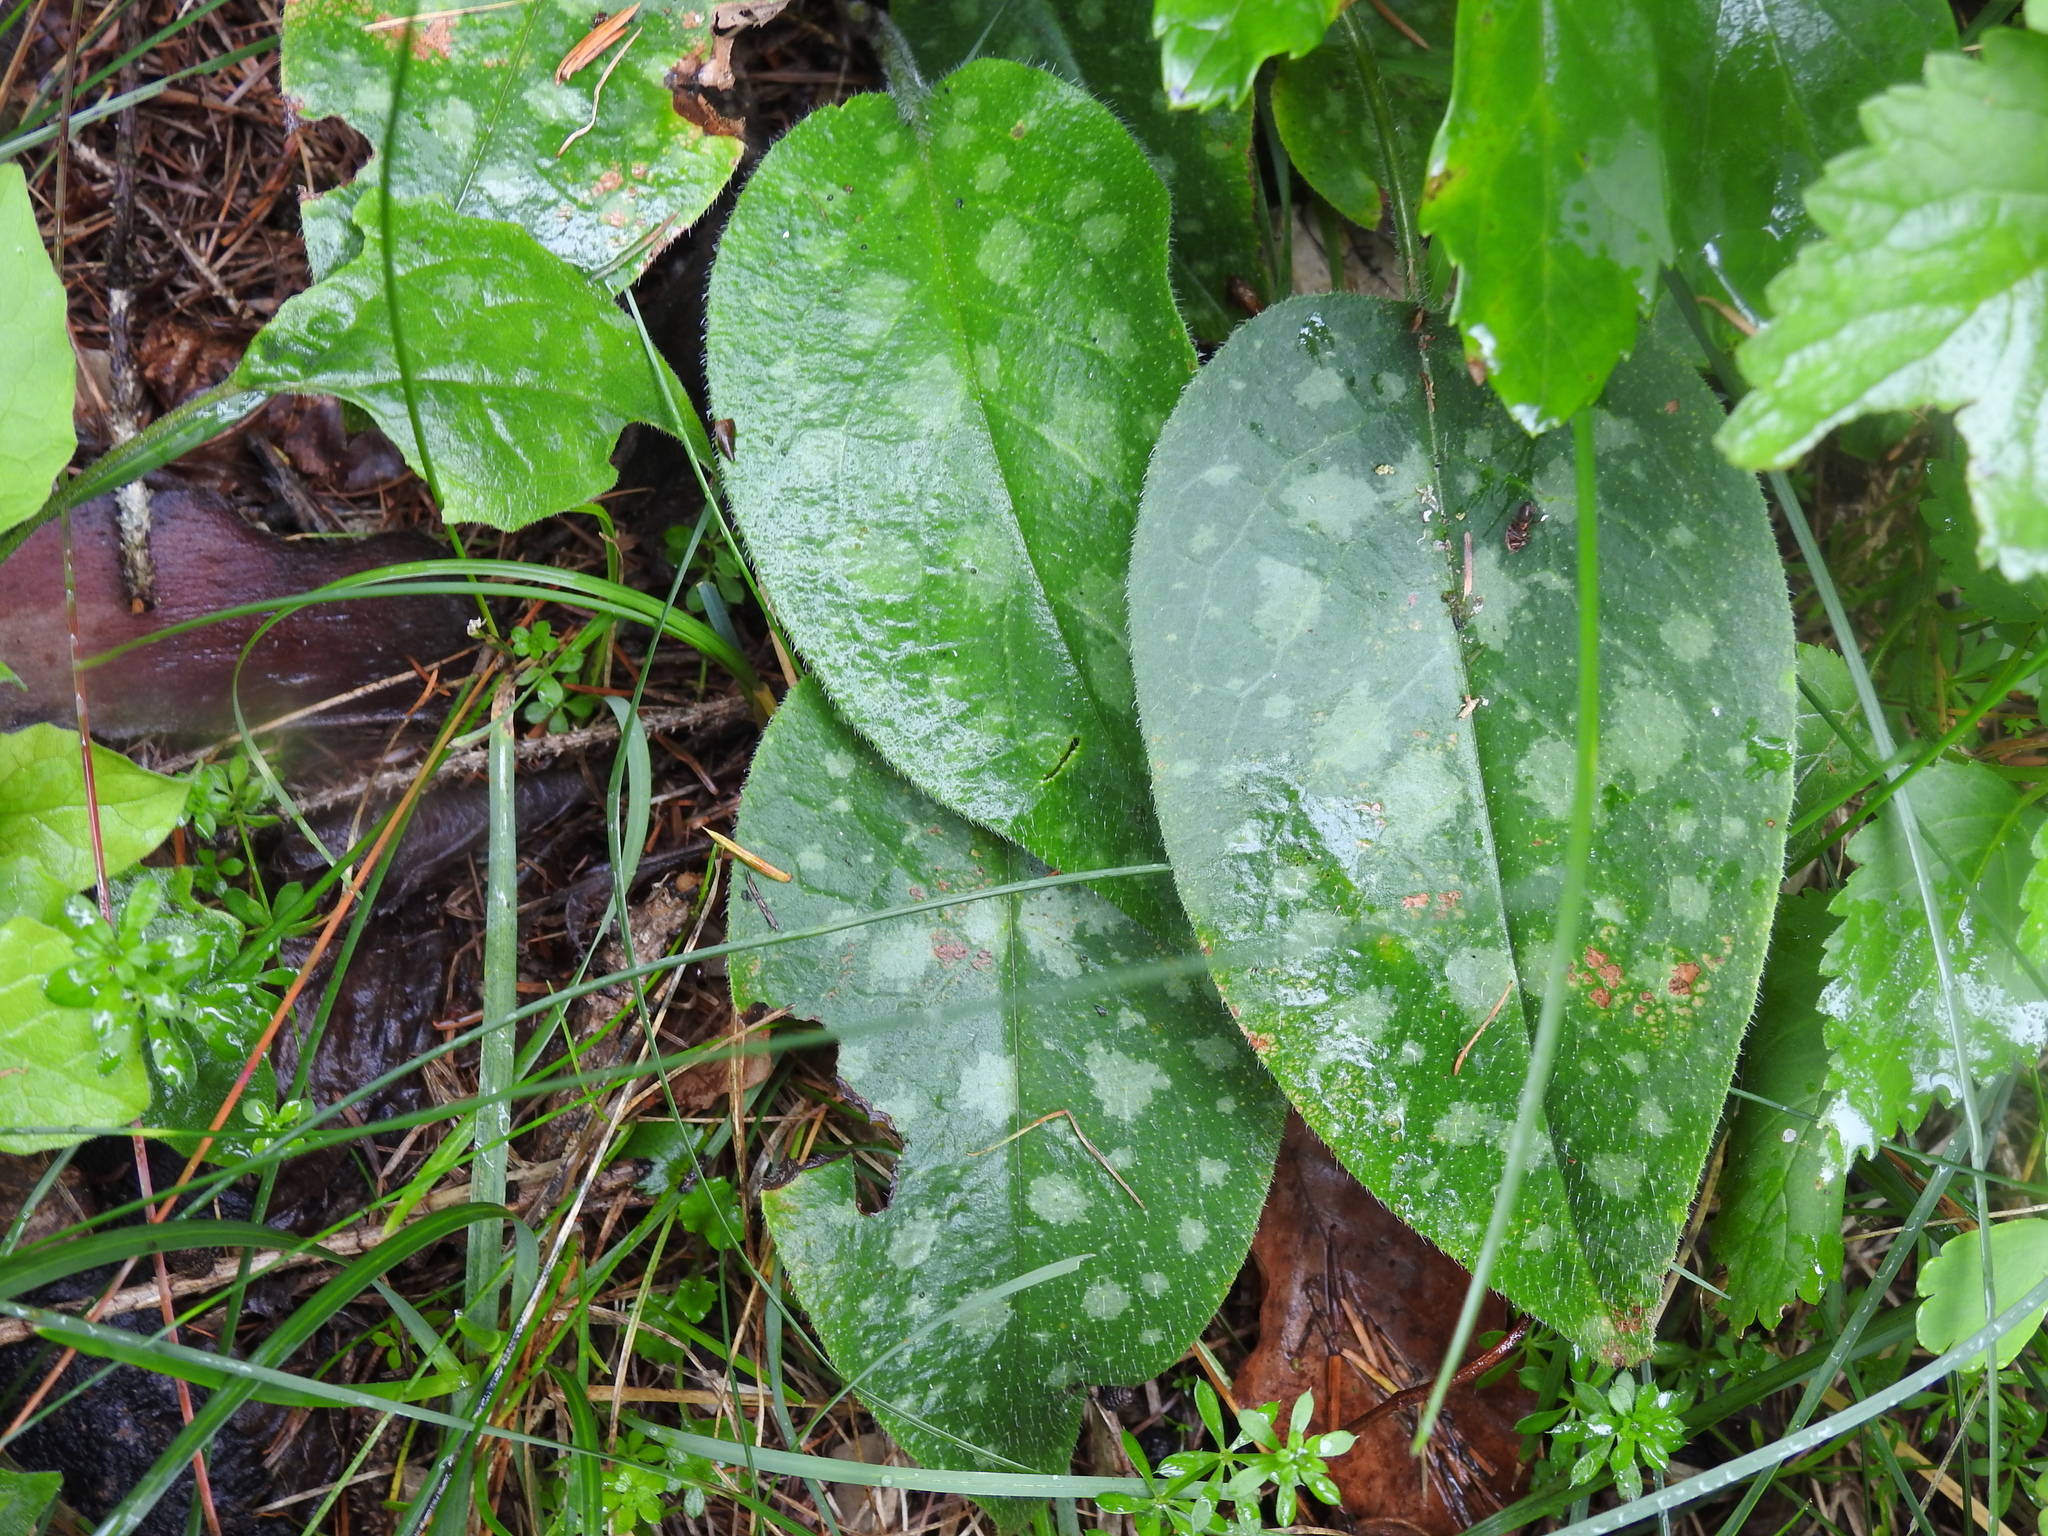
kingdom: Plantae
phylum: Tracheophyta
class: Magnoliopsida
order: Boraginales
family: Boraginaceae
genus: Pulmonaria
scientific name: Pulmonaria officinalis
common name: Lungwort
